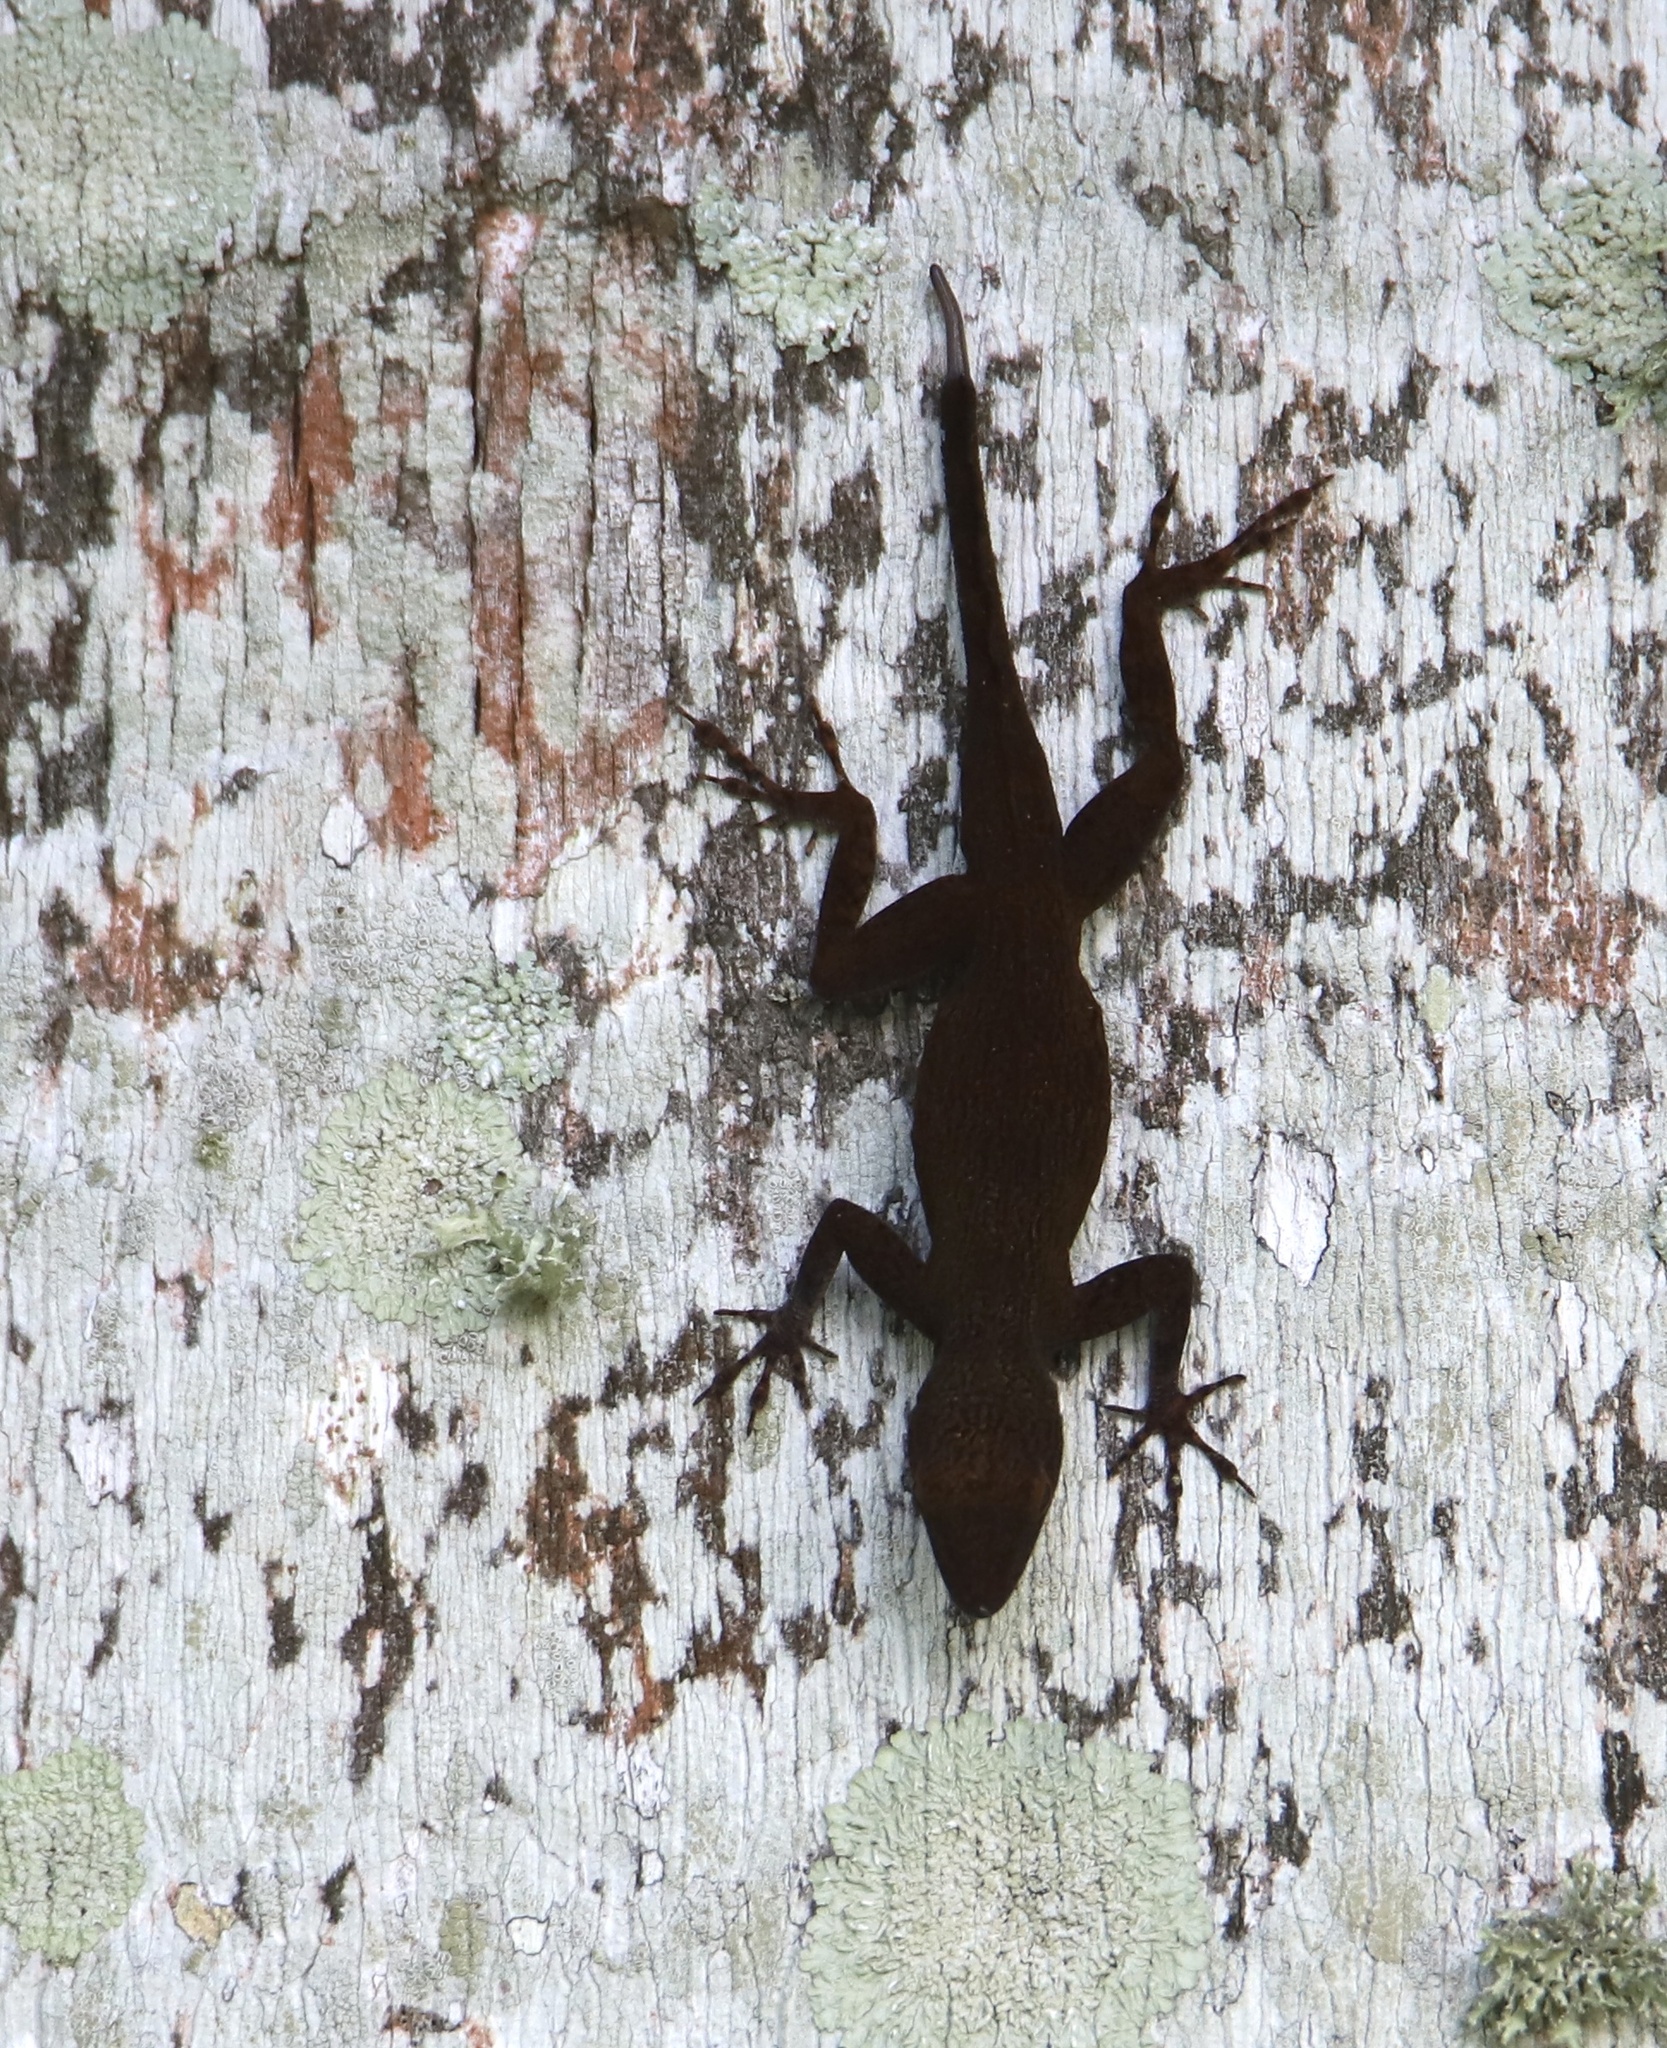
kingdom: Animalia
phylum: Chordata
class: Squamata
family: Dactyloidae
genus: Anolis
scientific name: Anolis distichus
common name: Bark anole
